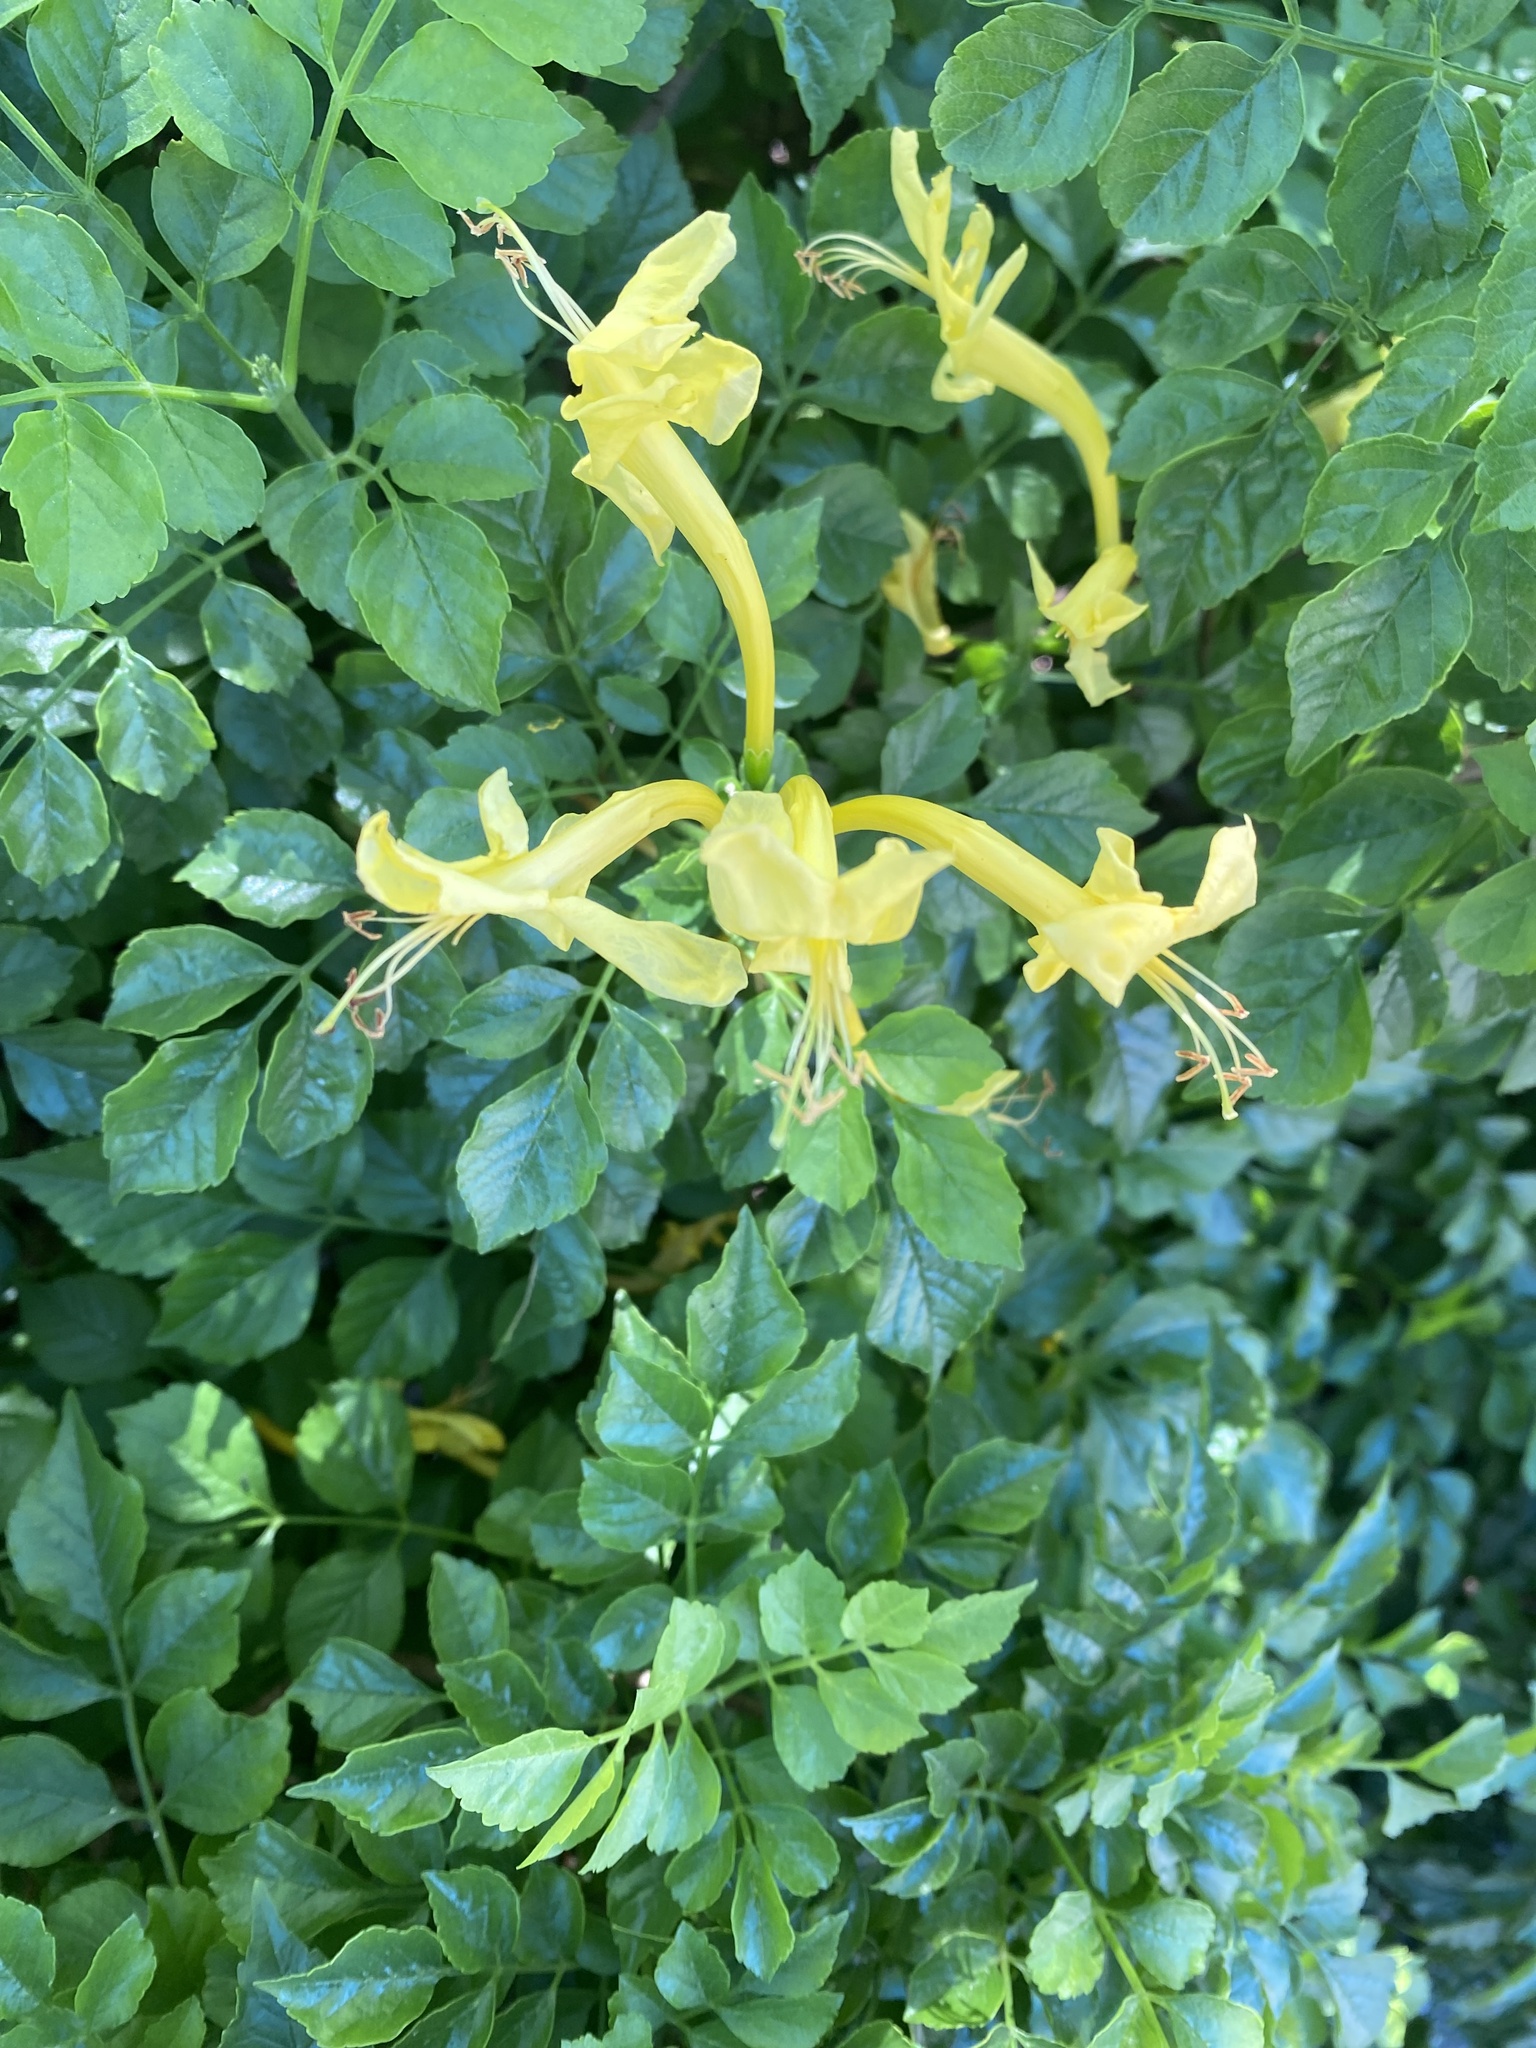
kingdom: Plantae
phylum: Tracheophyta
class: Magnoliopsida
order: Lamiales
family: Bignoniaceae
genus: Tecomaria
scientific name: Tecomaria capensis
